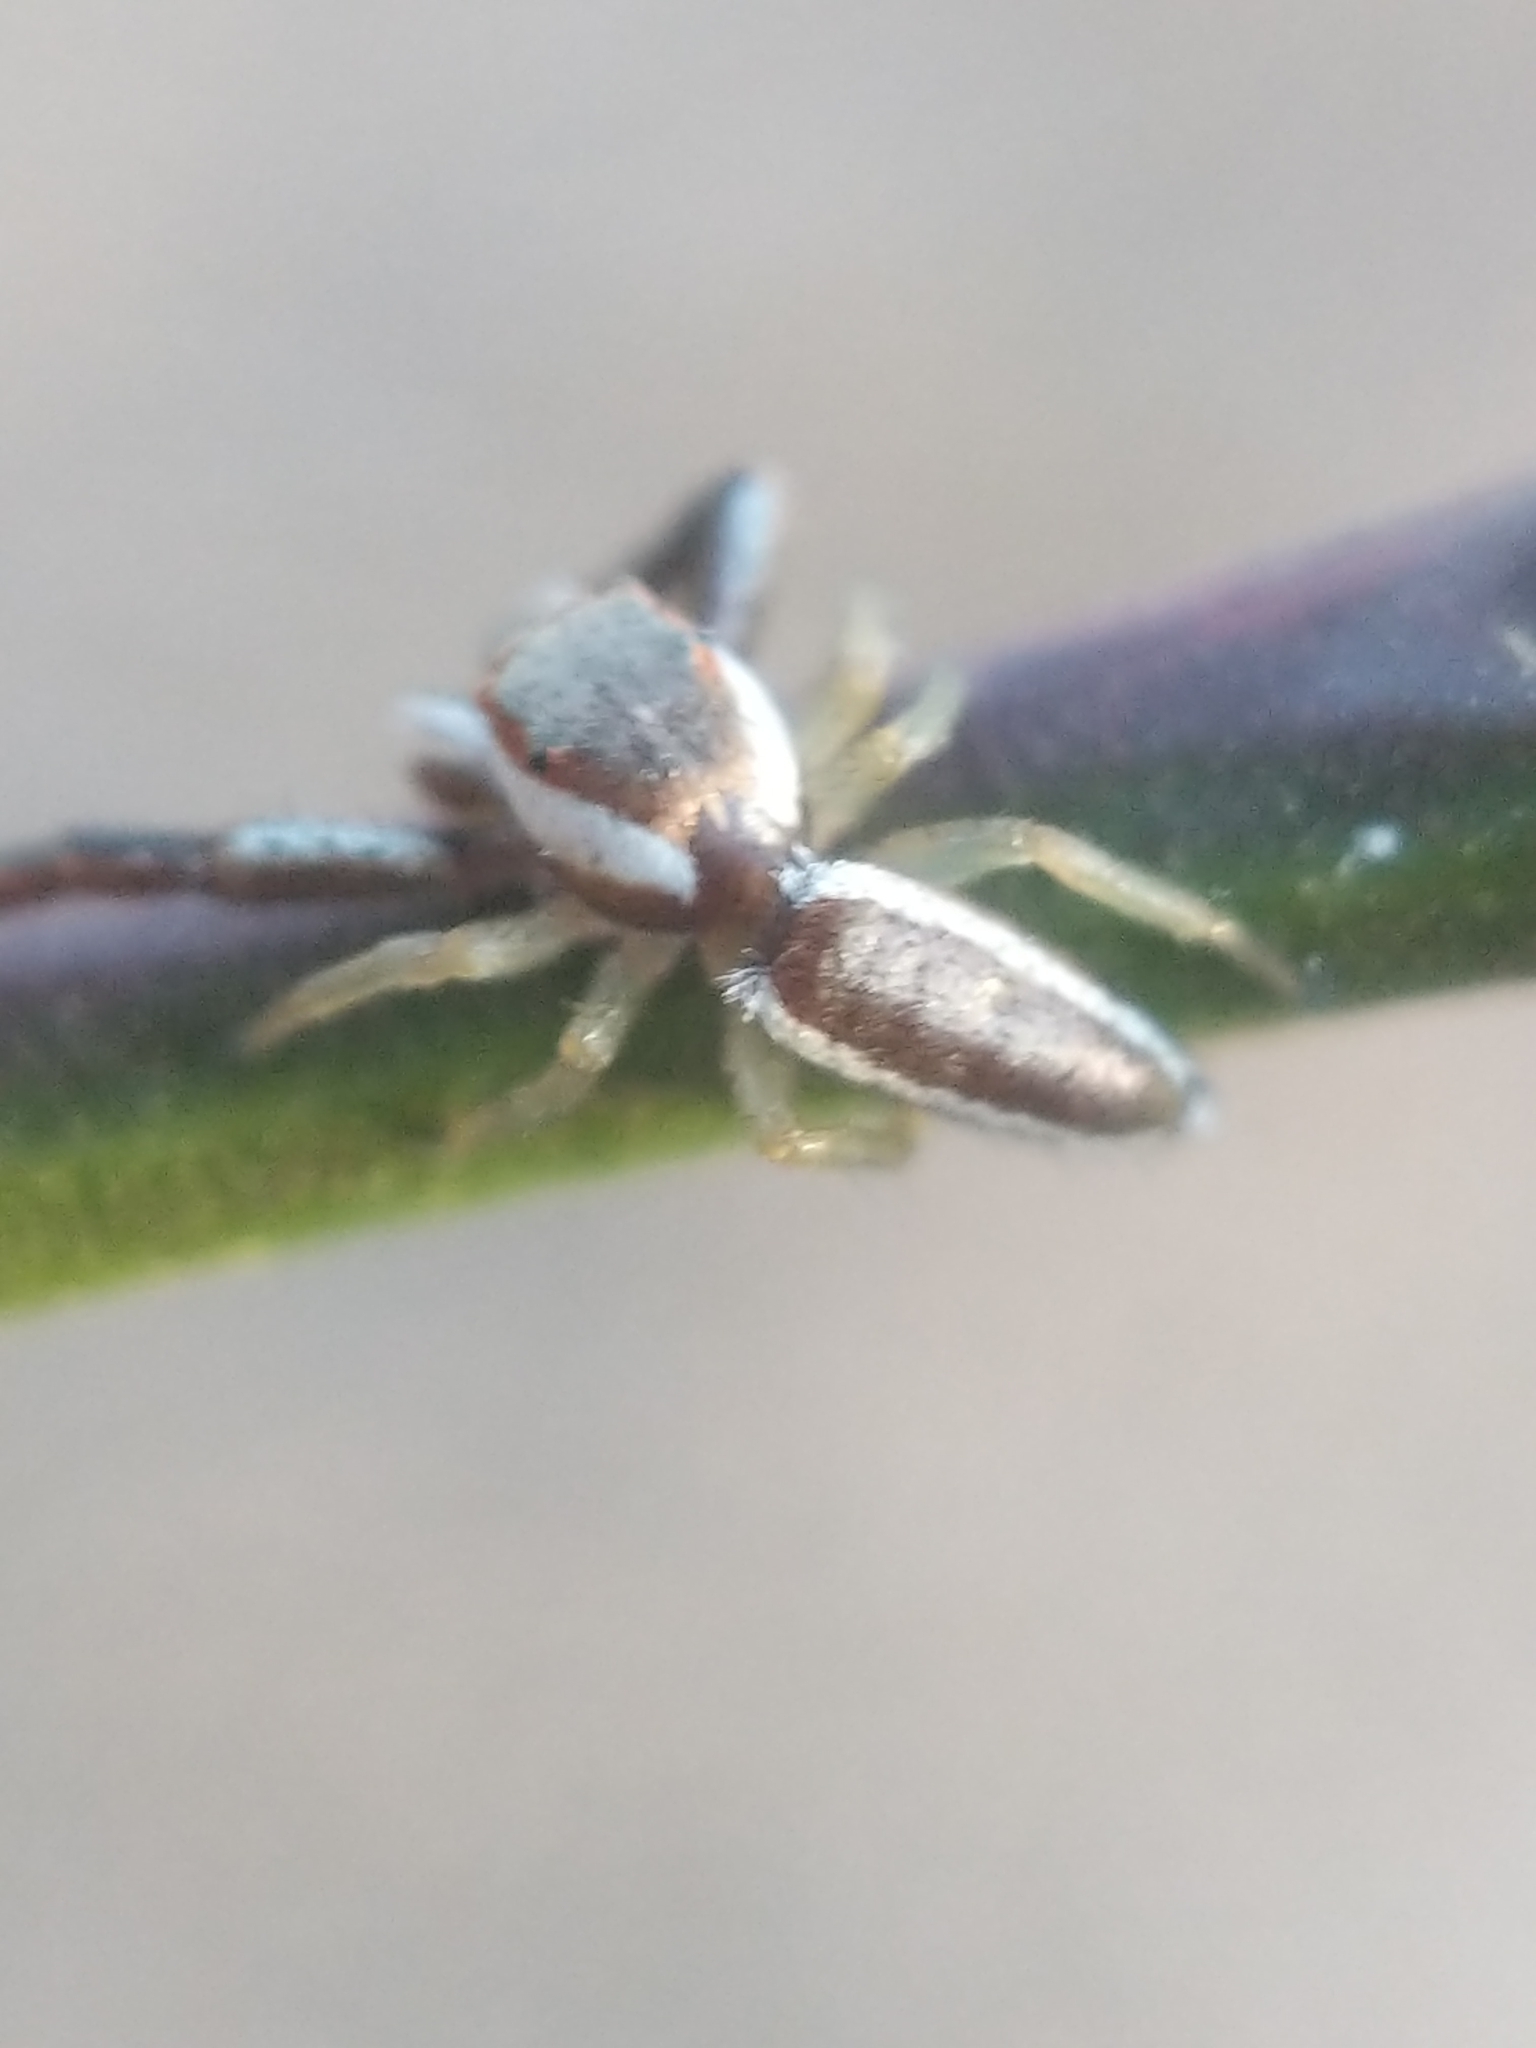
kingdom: Animalia
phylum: Arthropoda
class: Arachnida
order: Araneae
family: Salticidae
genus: Hentzia
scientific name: Hentzia palmarum
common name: Common hentz jumping spider
